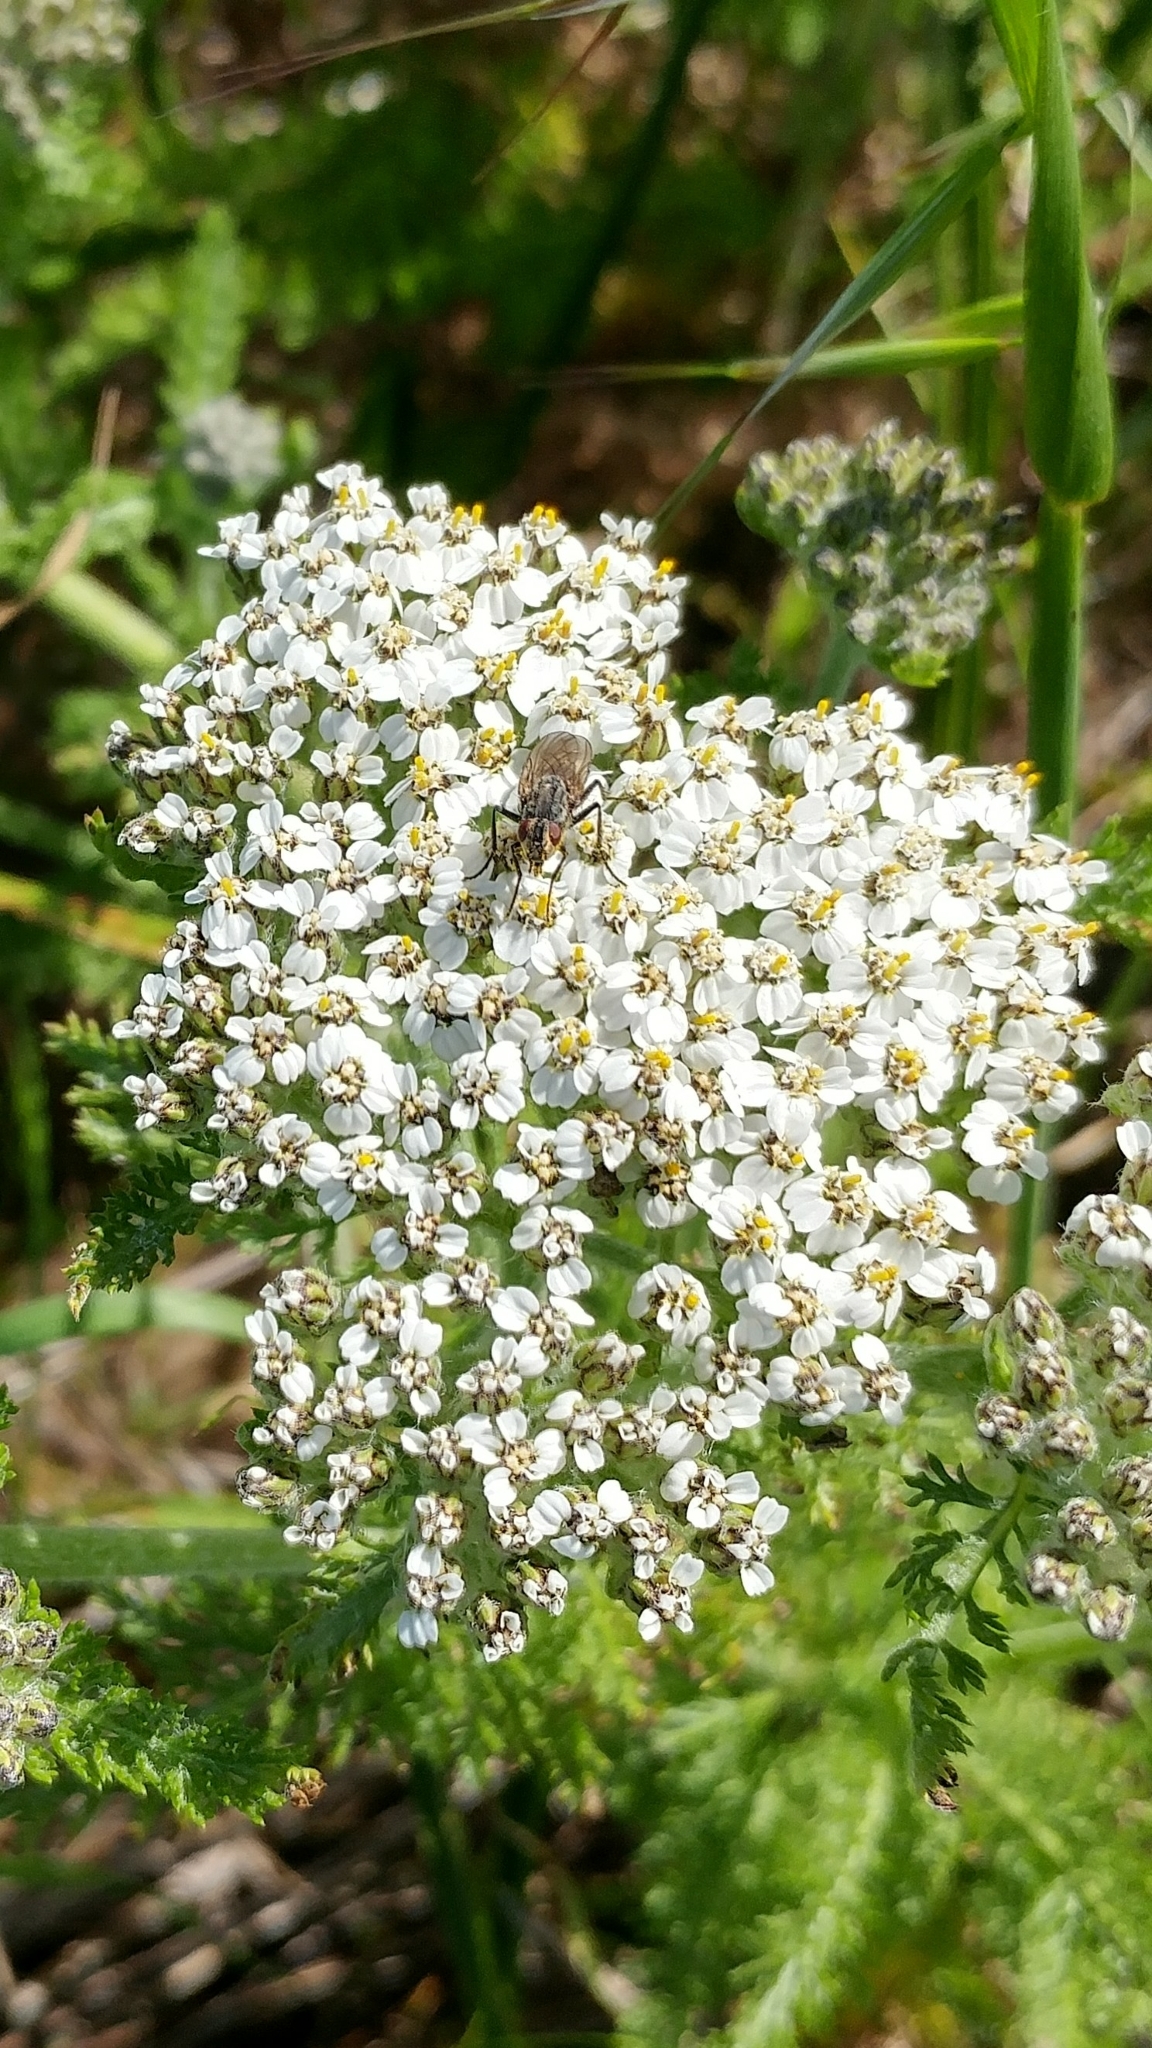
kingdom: Plantae
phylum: Tracheophyta
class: Magnoliopsida
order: Asterales
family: Asteraceae
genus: Achillea
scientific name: Achillea millefolium
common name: Yarrow
